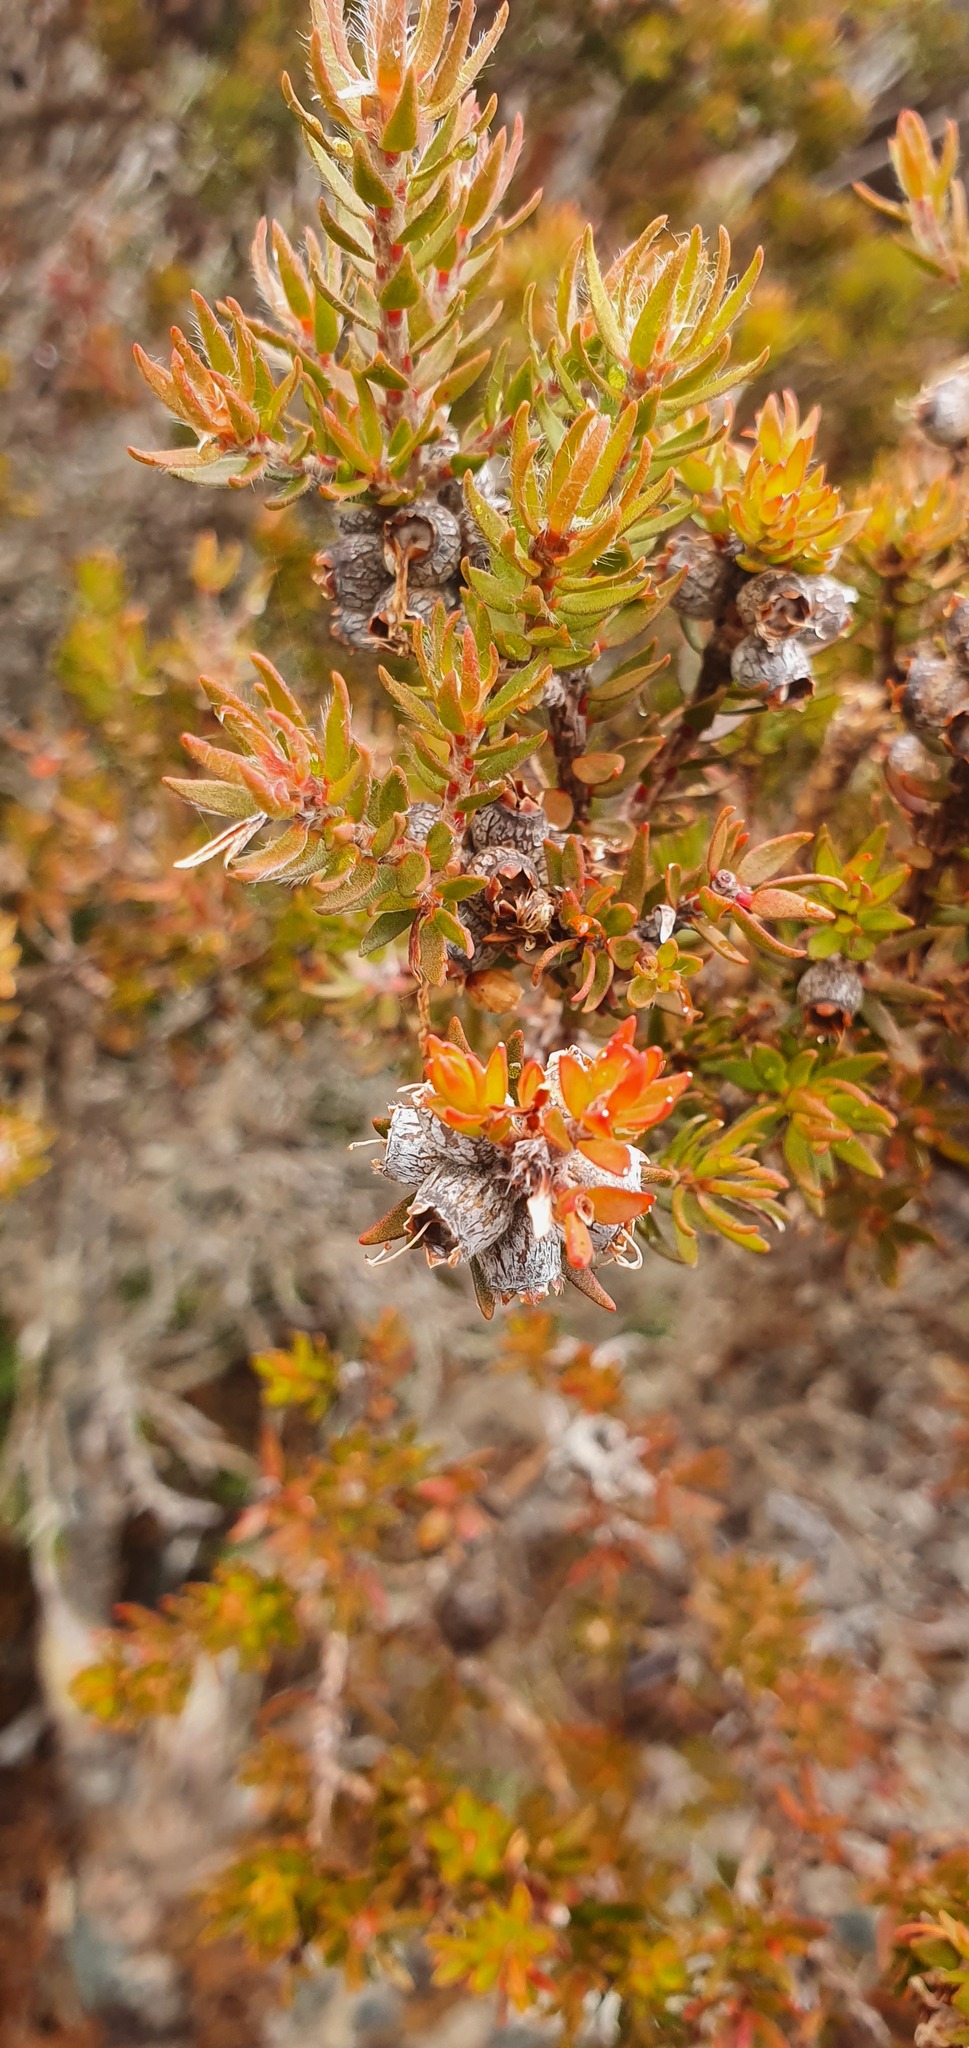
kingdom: Plantae
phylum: Tracheophyta
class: Magnoliopsida
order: Myrtales
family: Myrtaceae
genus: Melaleuca
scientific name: Melaleuca squamea
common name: Swamp melaleuca
